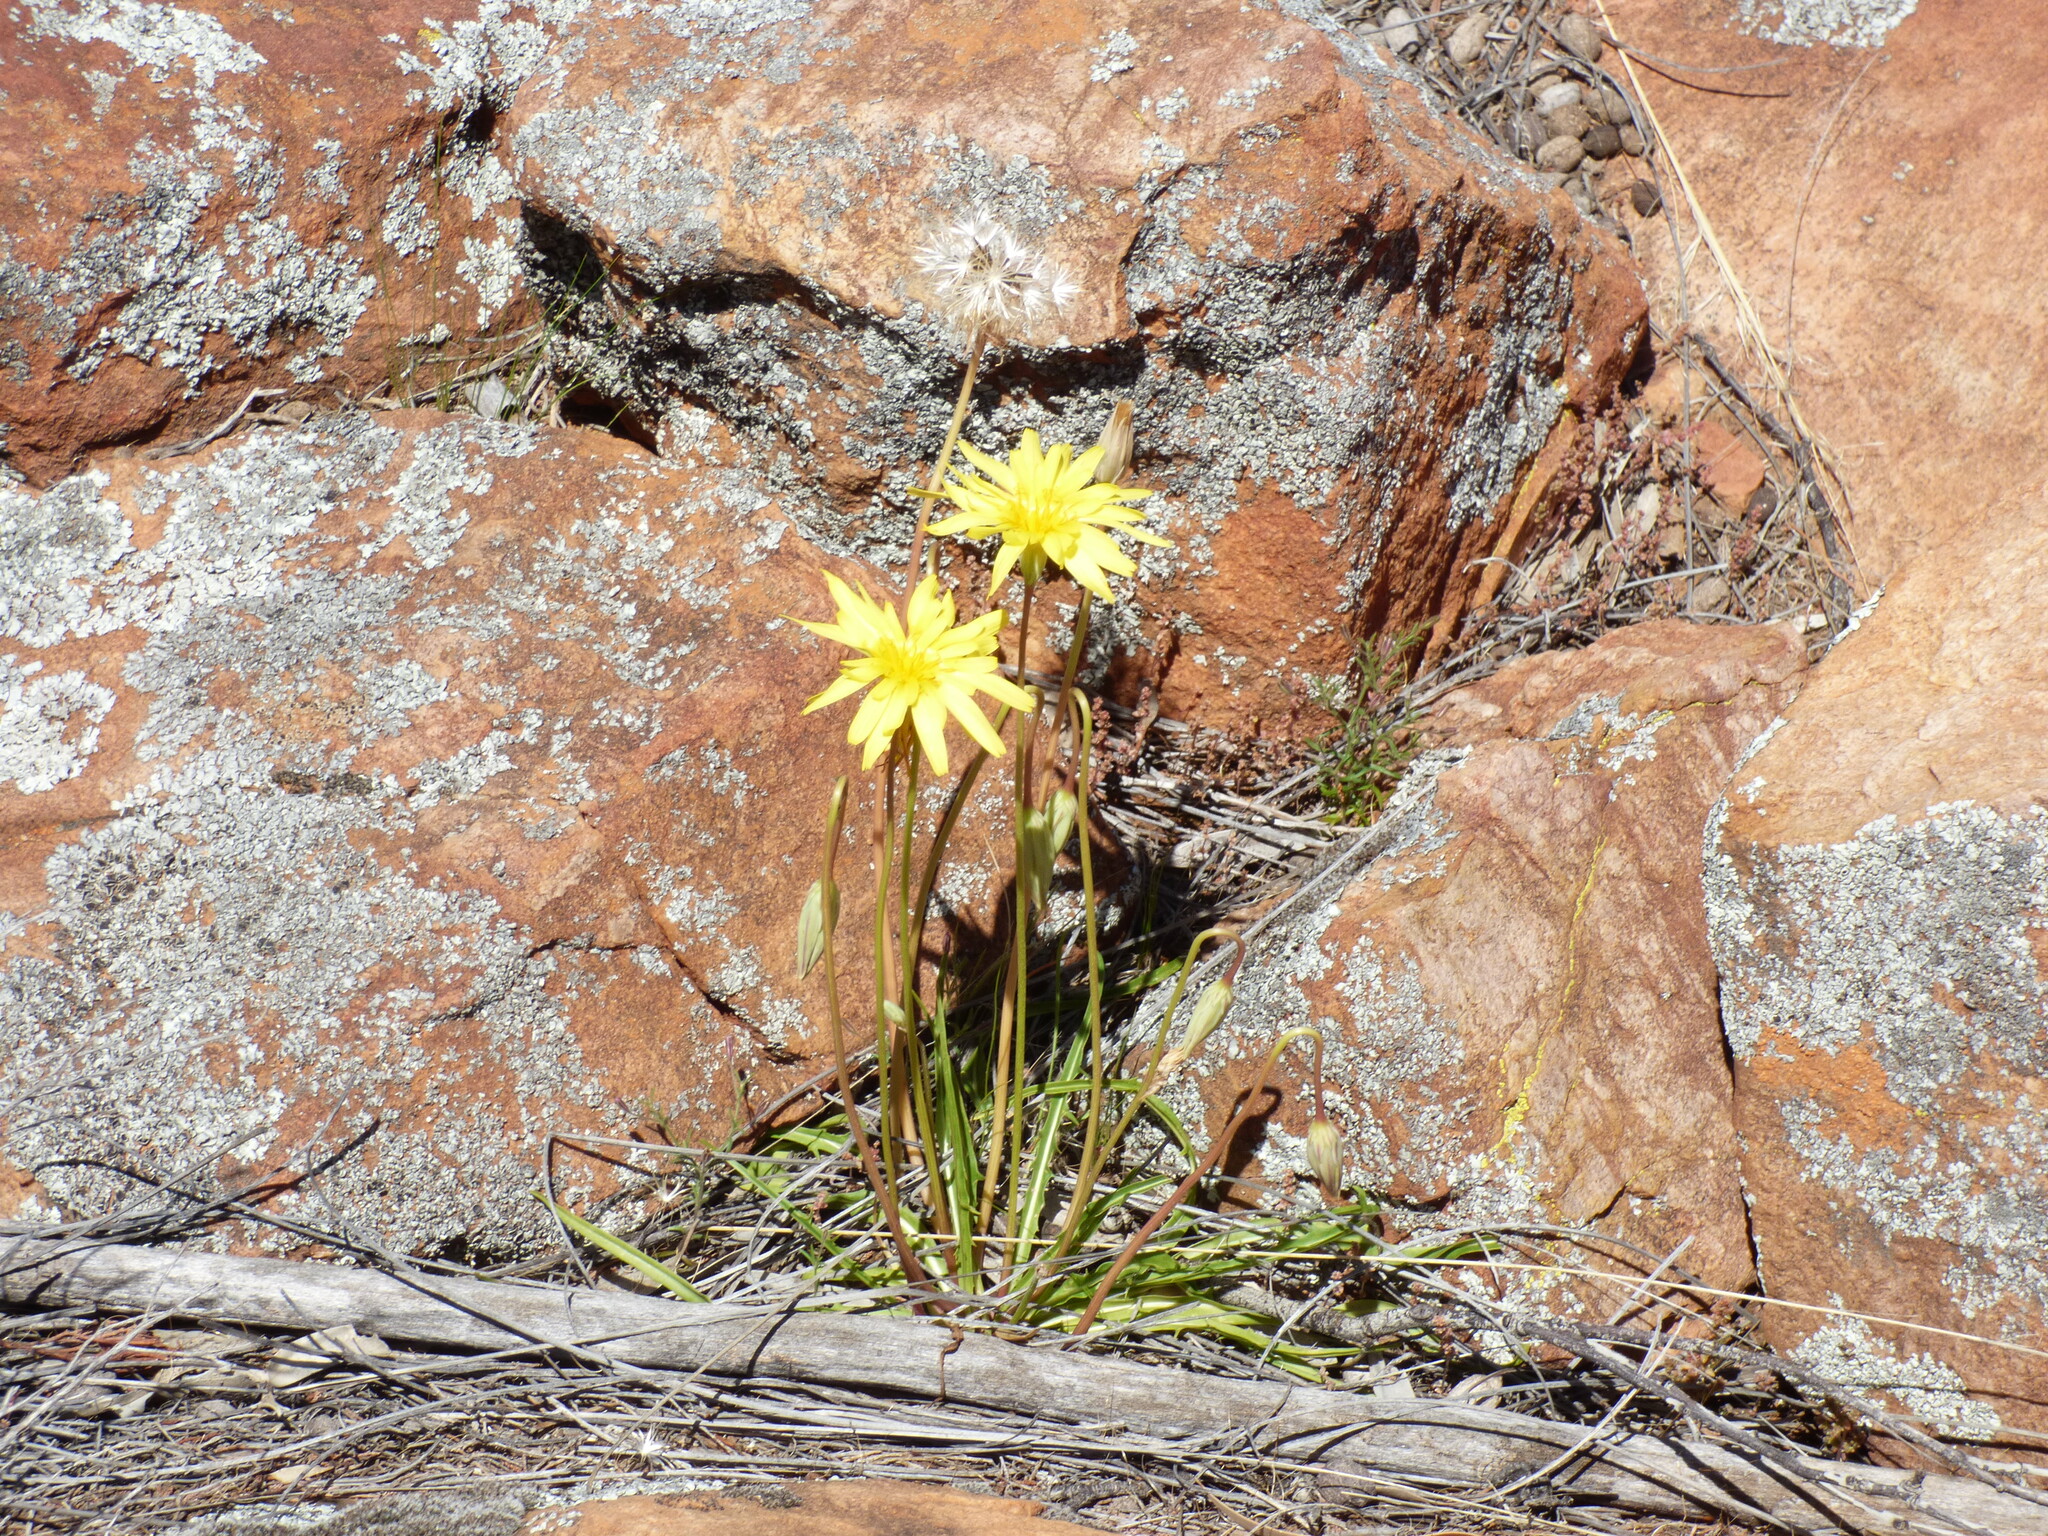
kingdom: Plantae
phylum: Tracheophyta
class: Magnoliopsida
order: Asterales
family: Asteraceae
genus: Microseris
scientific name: Microseris lanceolata
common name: Yam daisy
